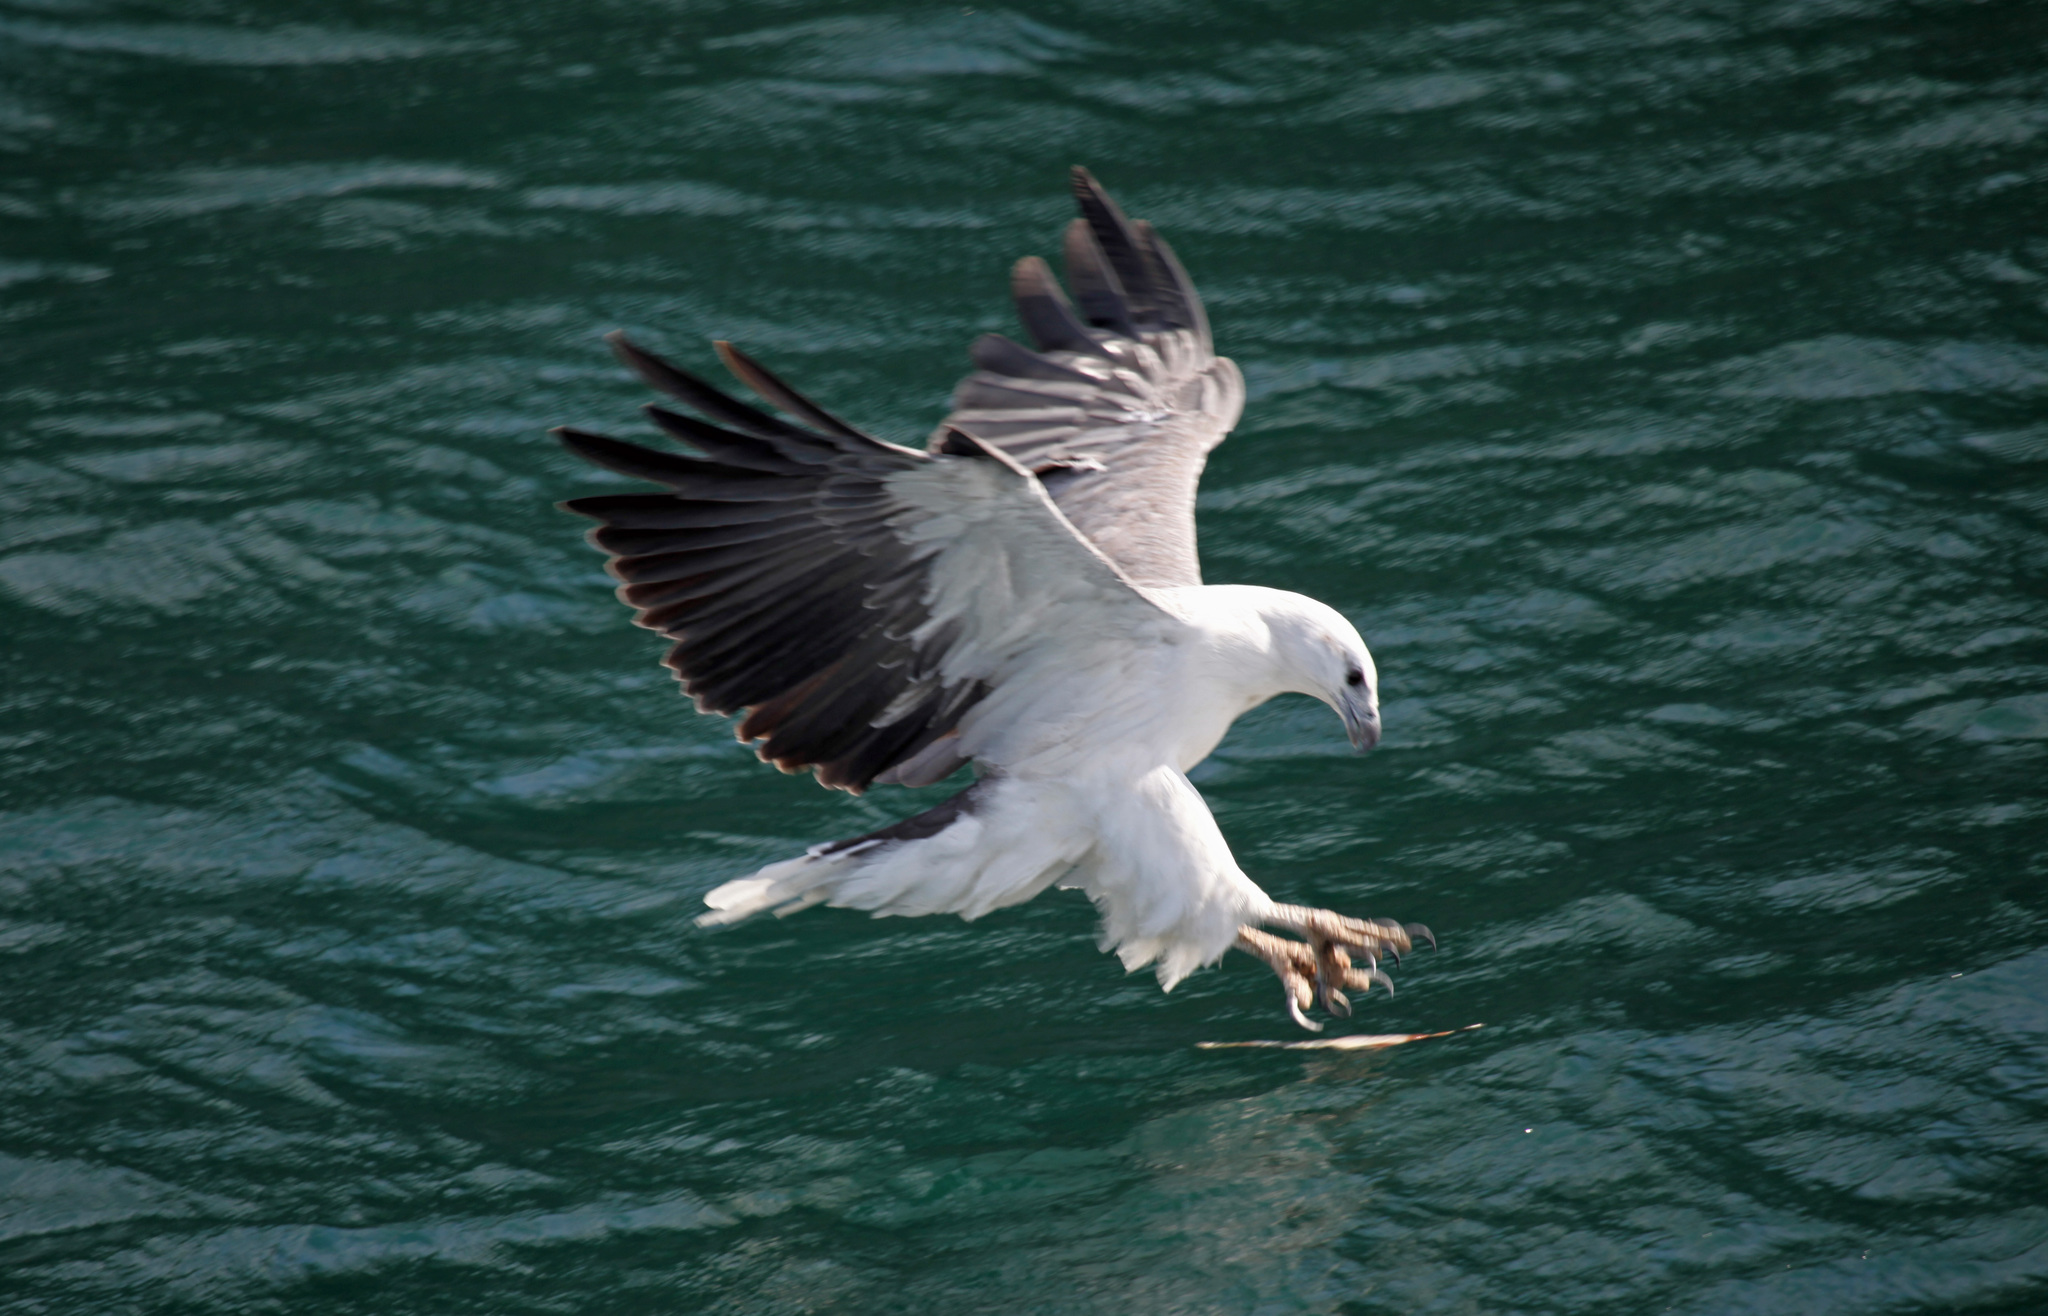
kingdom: Animalia
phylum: Chordata
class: Aves
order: Accipitriformes
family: Accipitridae
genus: Haliaeetus
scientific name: Haliaeetus leucogaster
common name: White-bellied sea eagle
